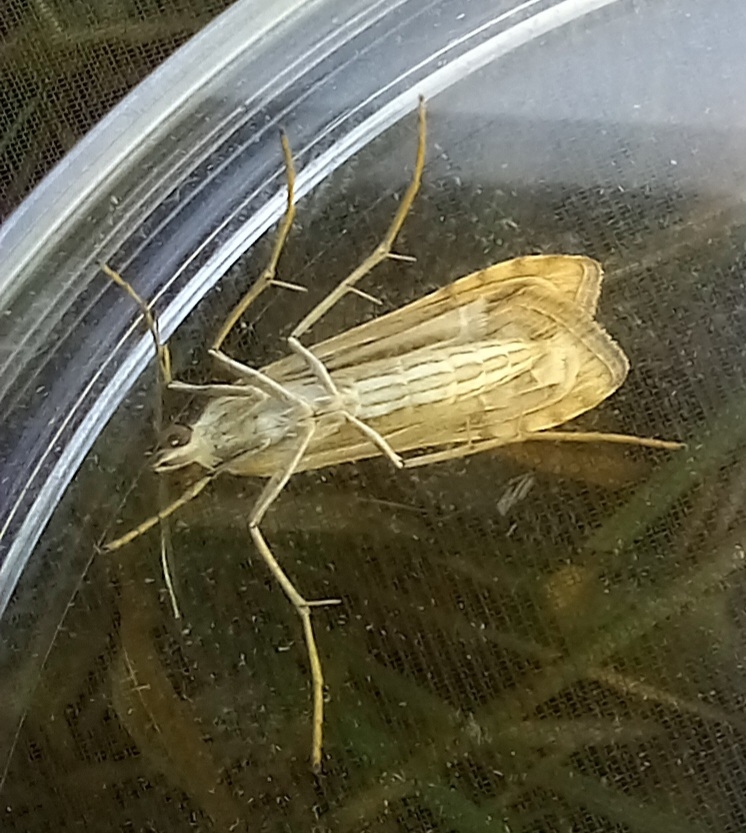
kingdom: Animalia
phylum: Arthropoda
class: Insecta
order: Lepidoptera
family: Crambidae
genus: Nomophila
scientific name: Nomophila noctuella
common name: Rush veneer
